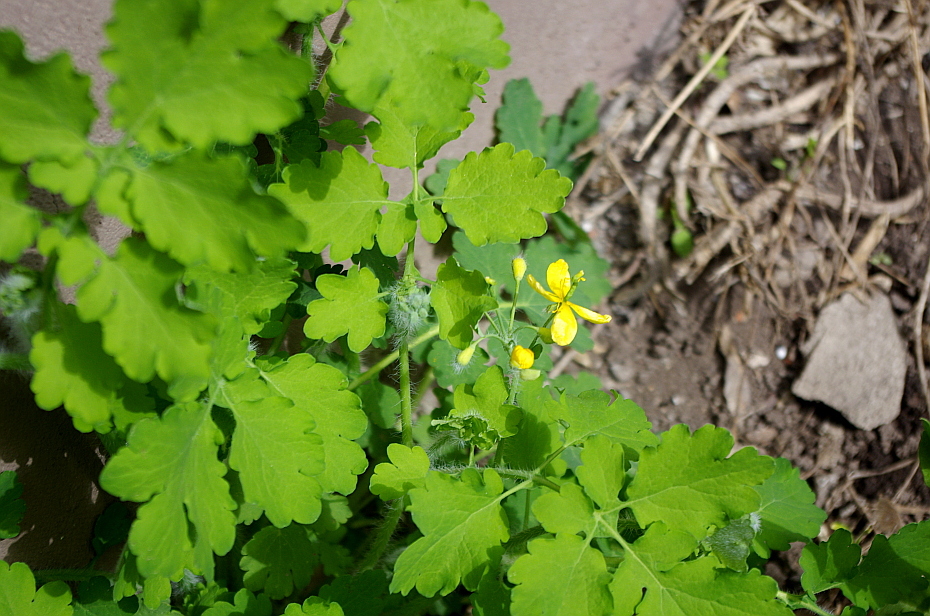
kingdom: Plantae
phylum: Tracheophyta
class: Magnoliopsida
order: Ranunculales
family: Papaveraceae
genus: Chelidonium
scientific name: Chelidonium majus
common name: Greater celandine
